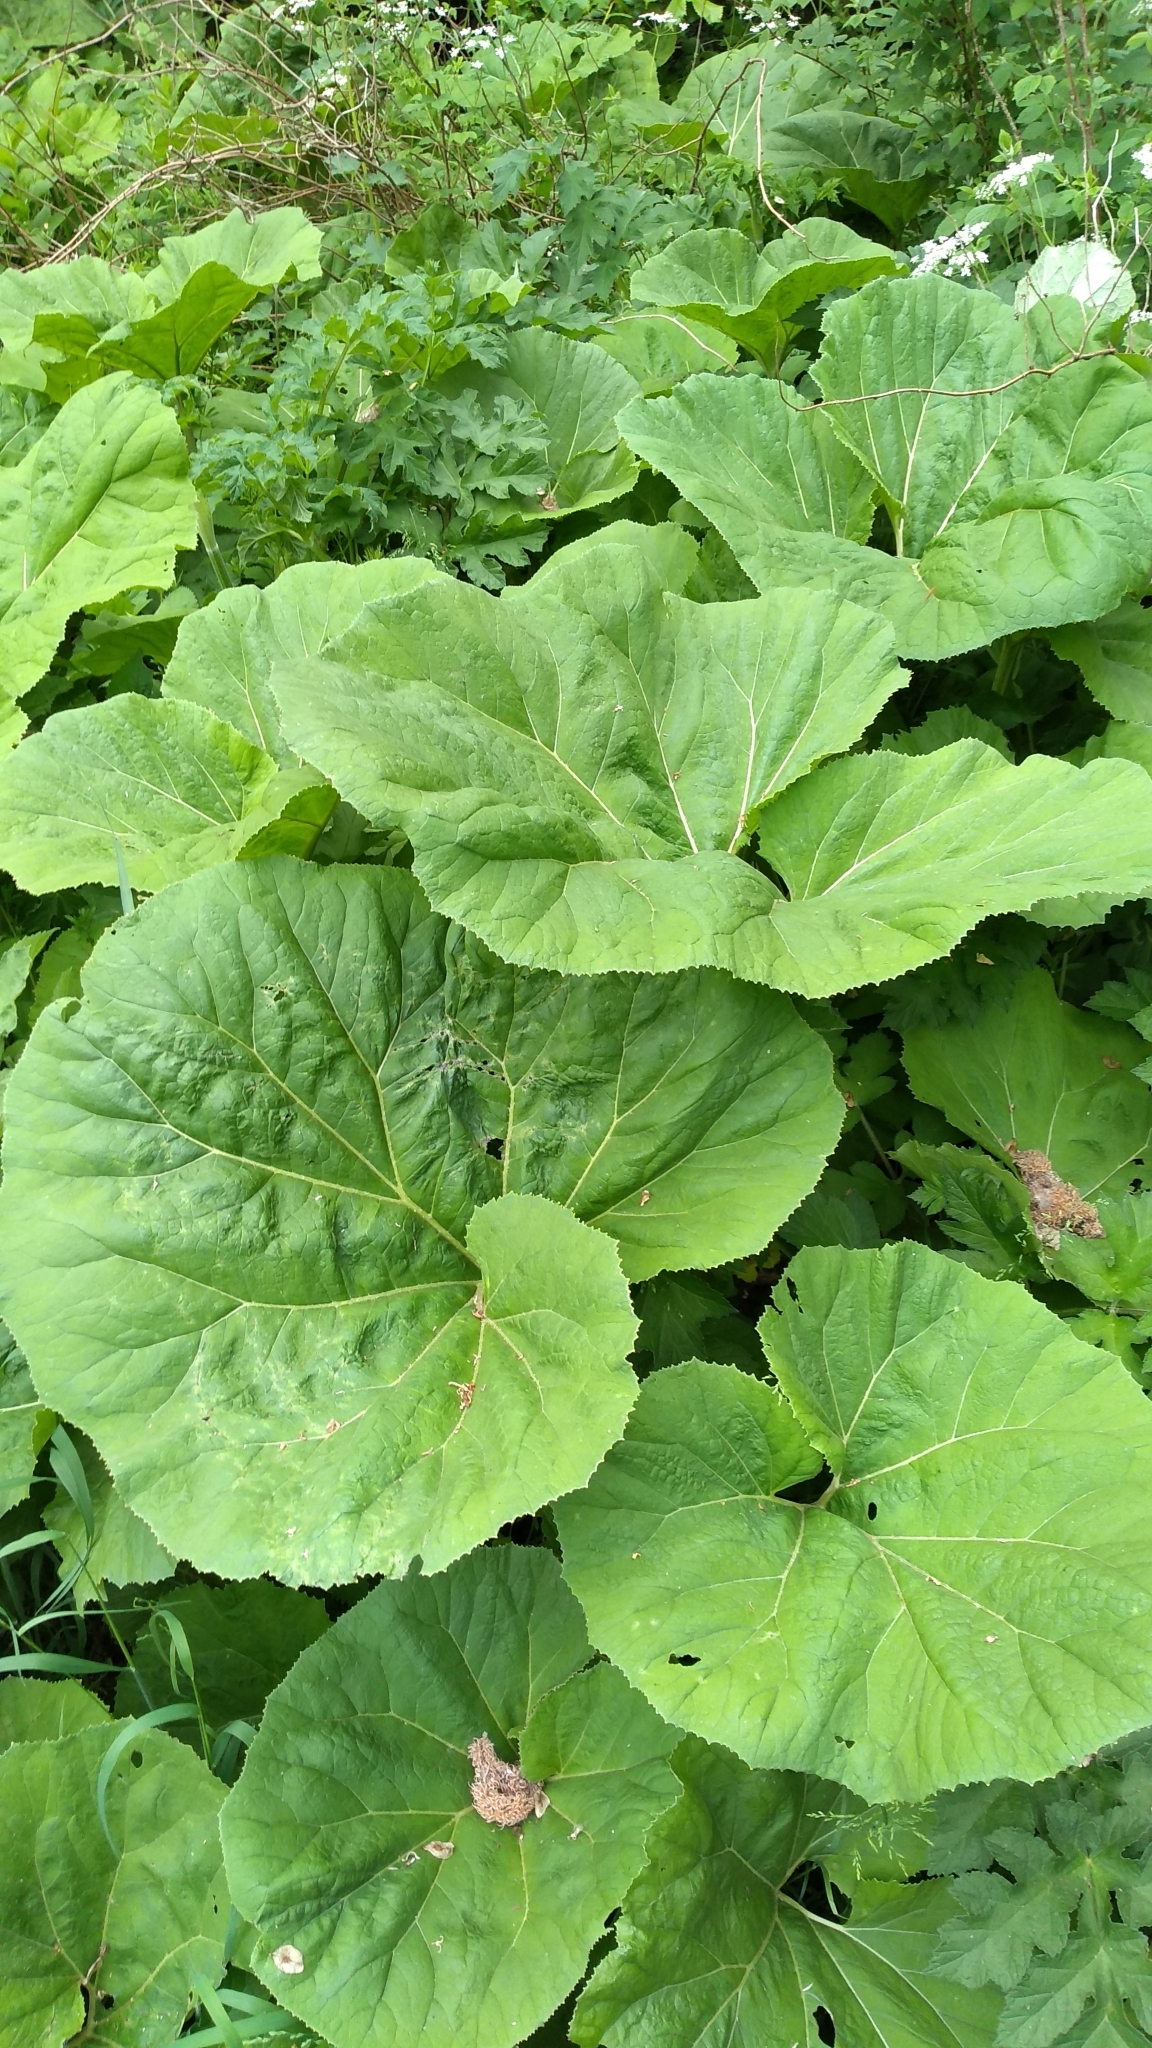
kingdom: Plantae
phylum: Tracheophyta
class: Magnoliopsida
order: Asterales
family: Asteraceae
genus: Petasites
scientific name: Petasites hybridus
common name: Butterbur
